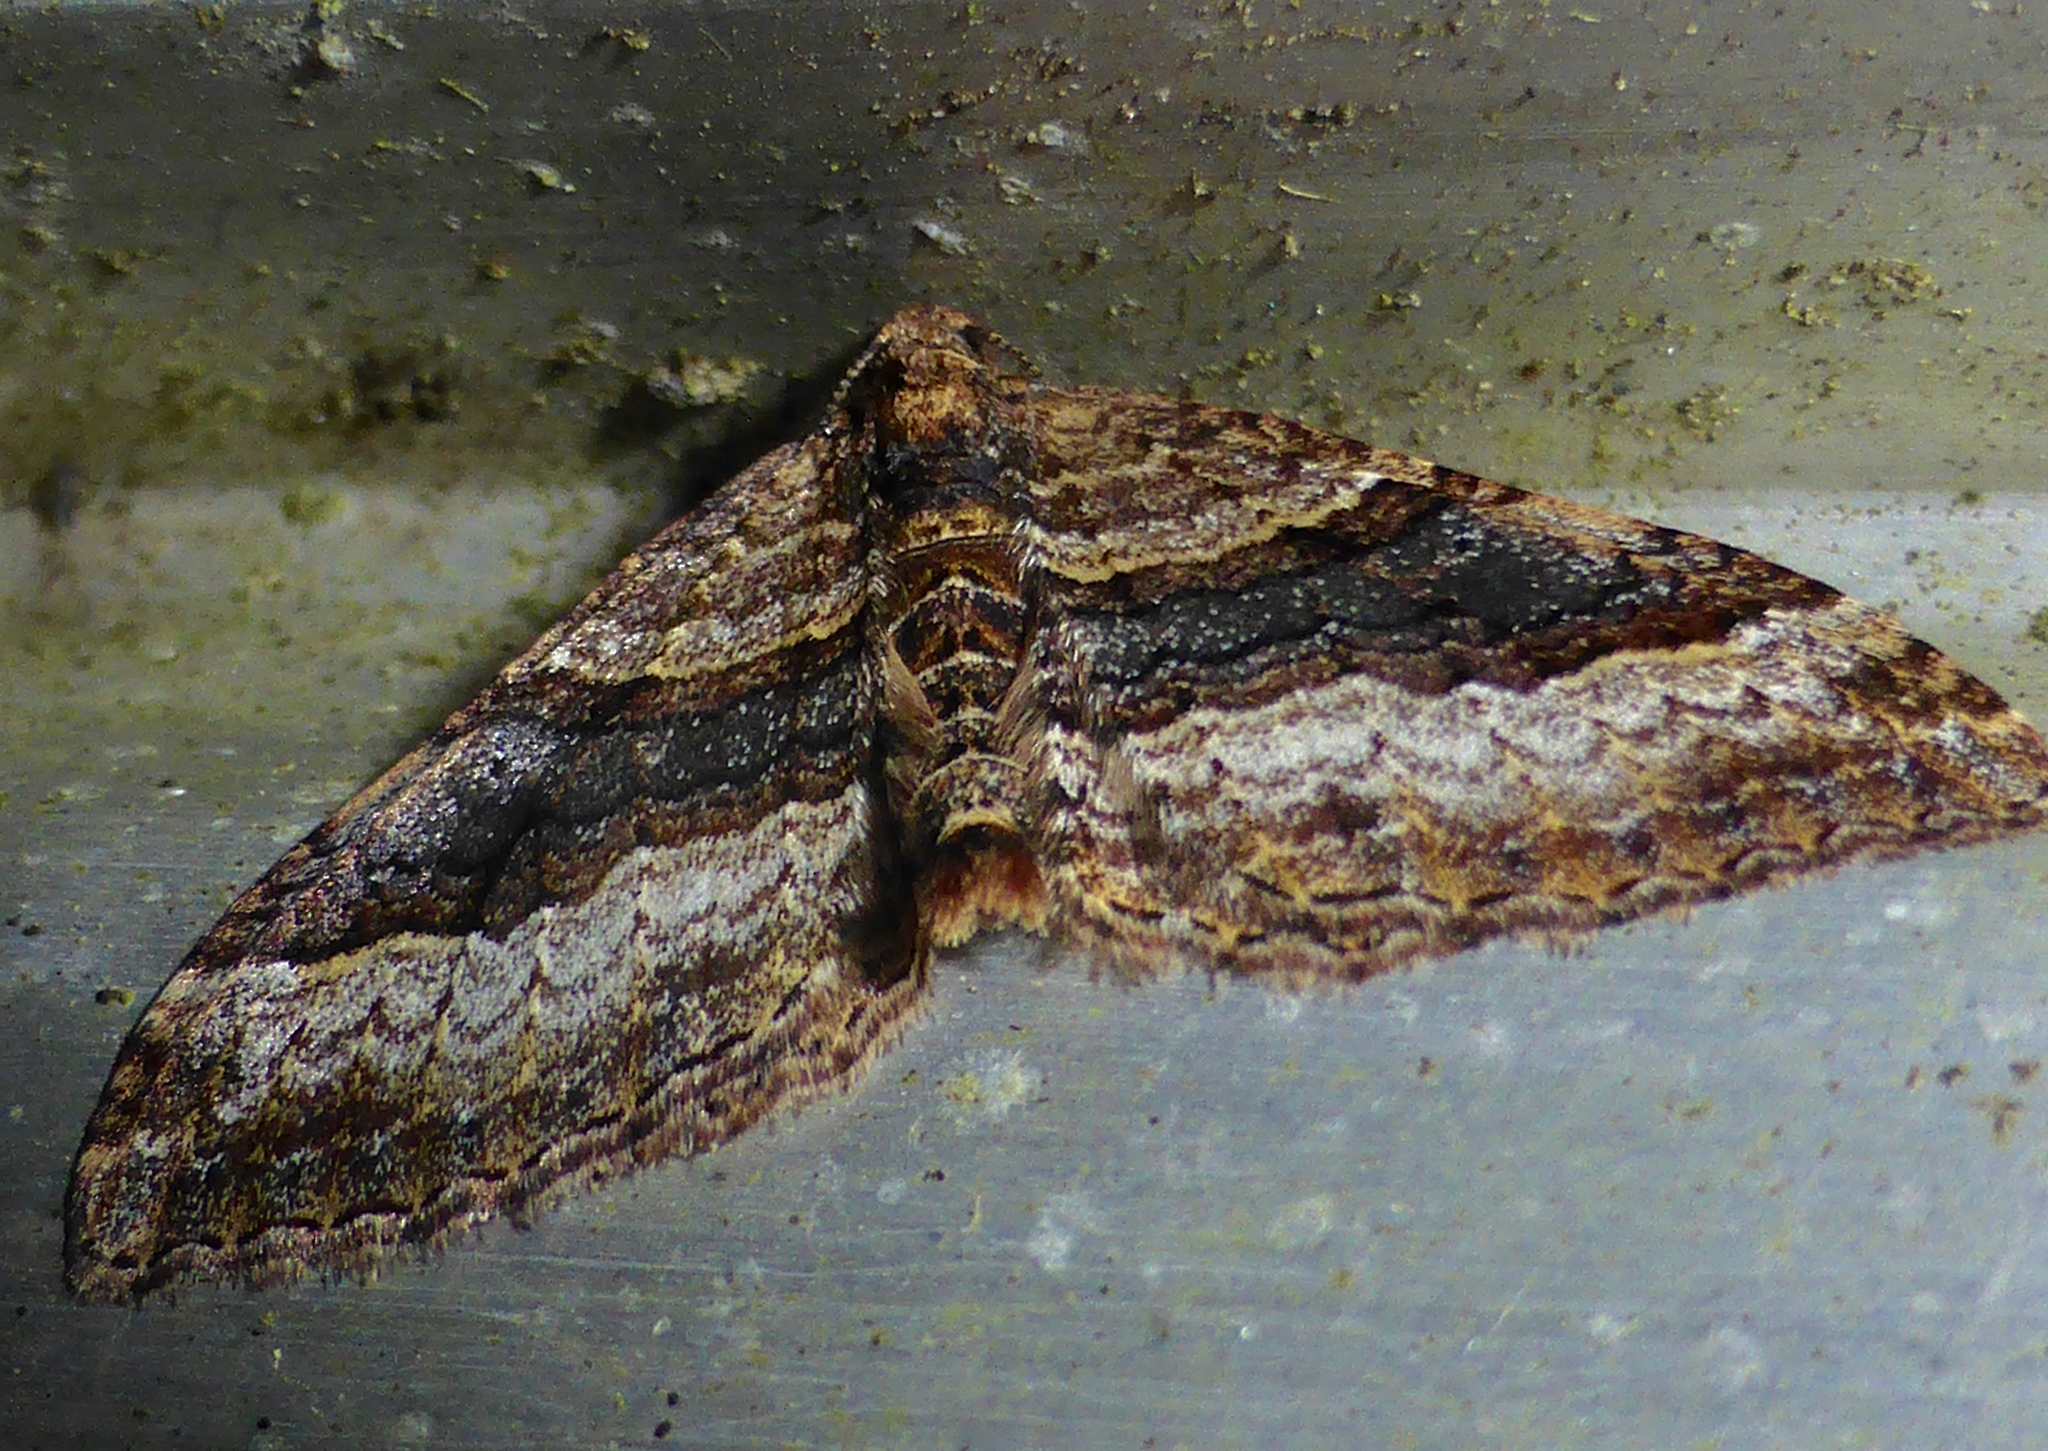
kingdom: Animalia
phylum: Arthropoda
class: Insecta
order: Lepidoptera
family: Geometridae
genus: Epyaxa
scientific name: Epyaxa lucidata
